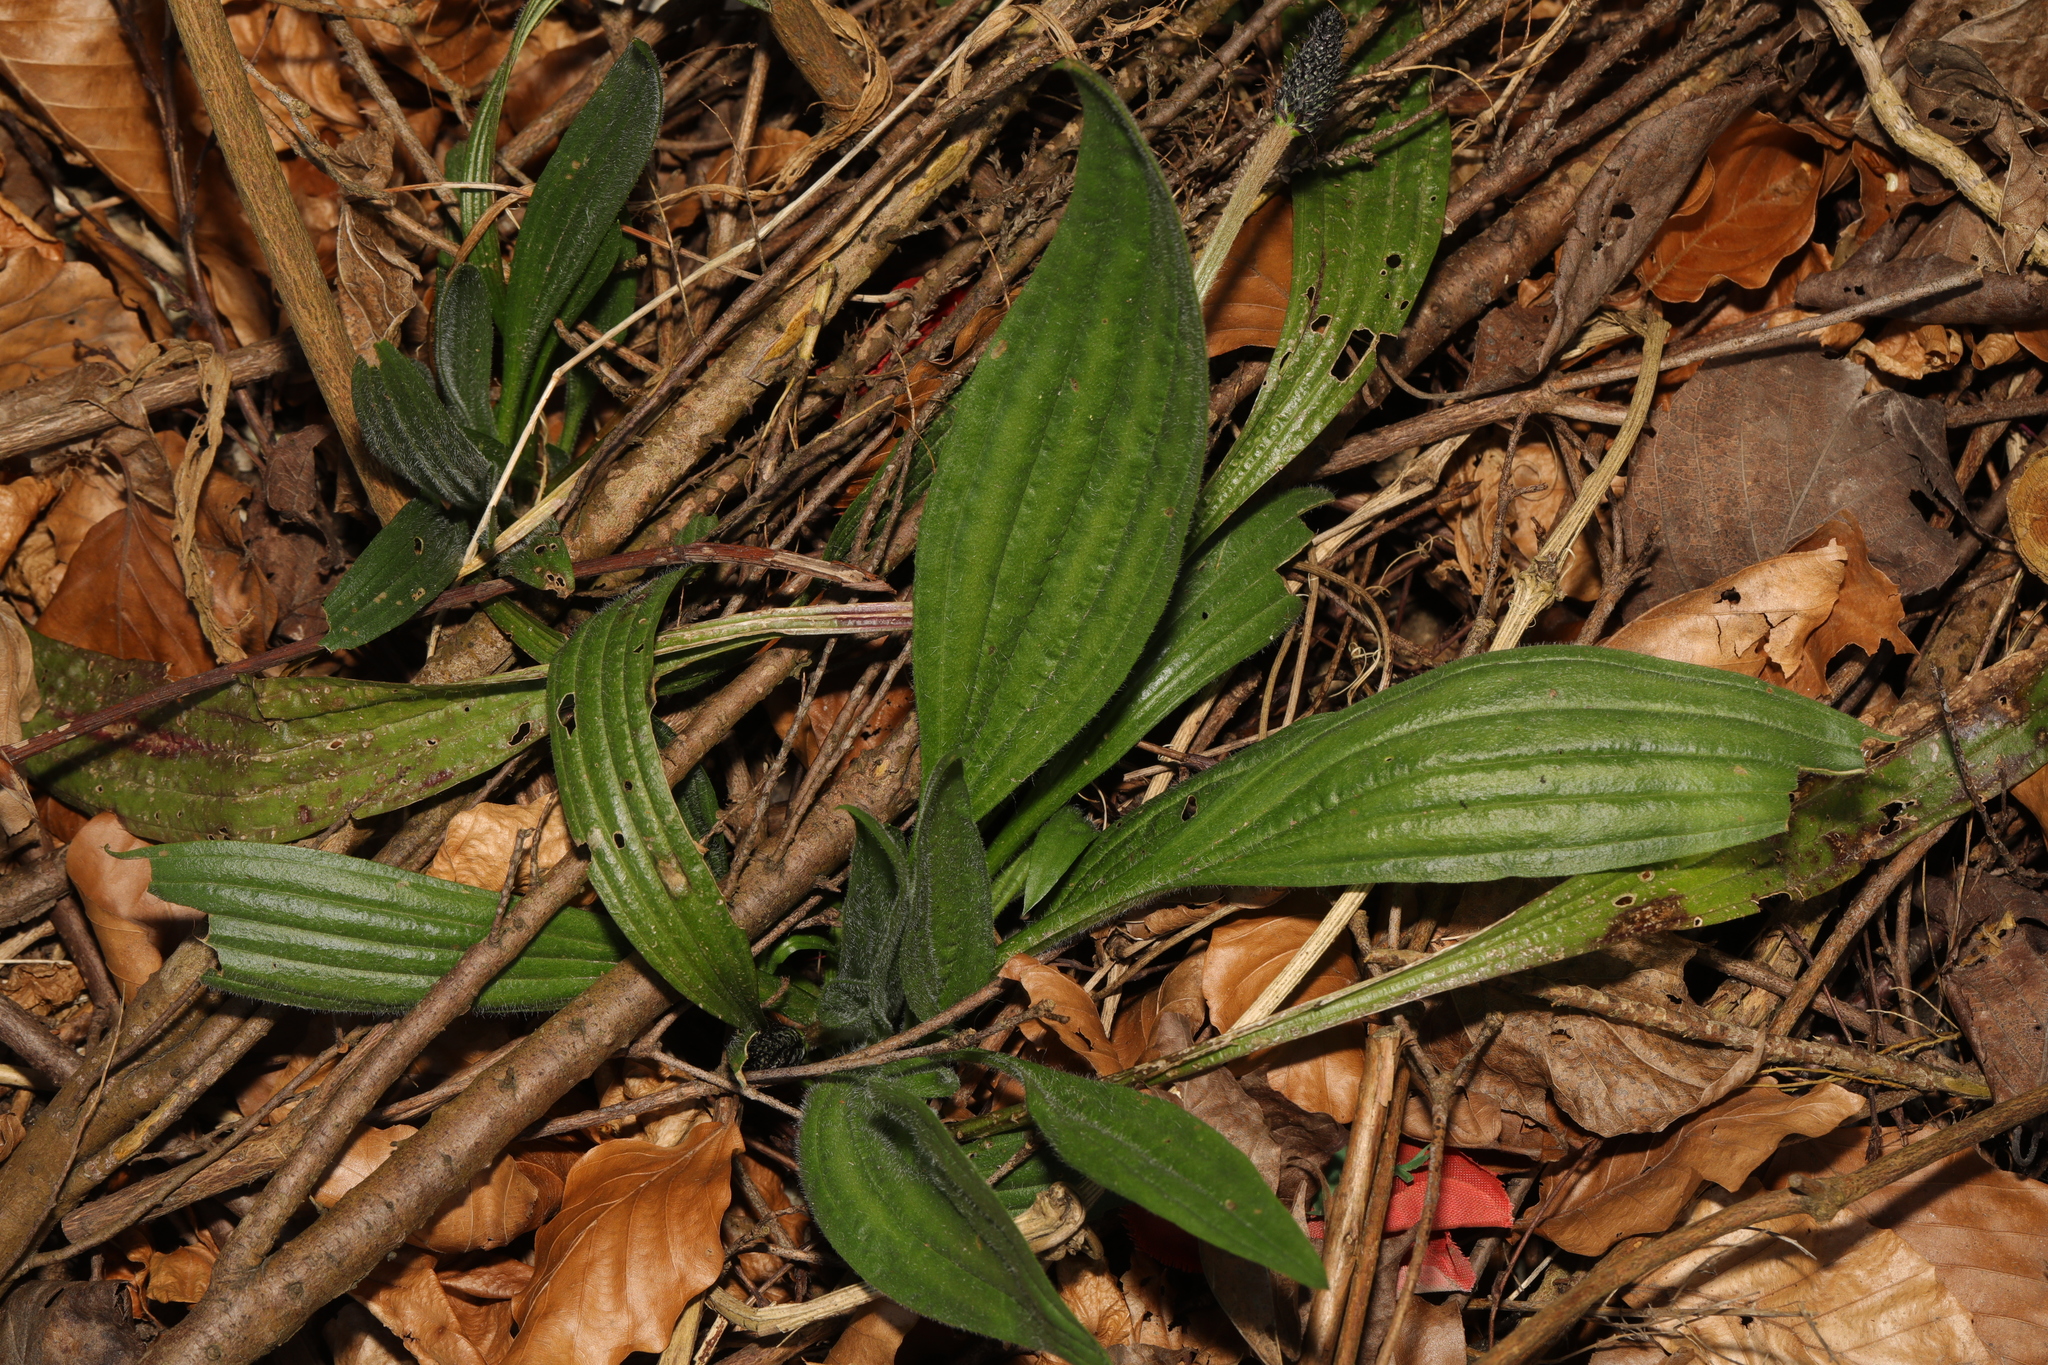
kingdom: Plantae
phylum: Tracheophyta
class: Magnoliopsida
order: Lamiales
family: Plantaginaceae
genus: Plantago
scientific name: Plantago lanceolata
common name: Ribwort plantain
